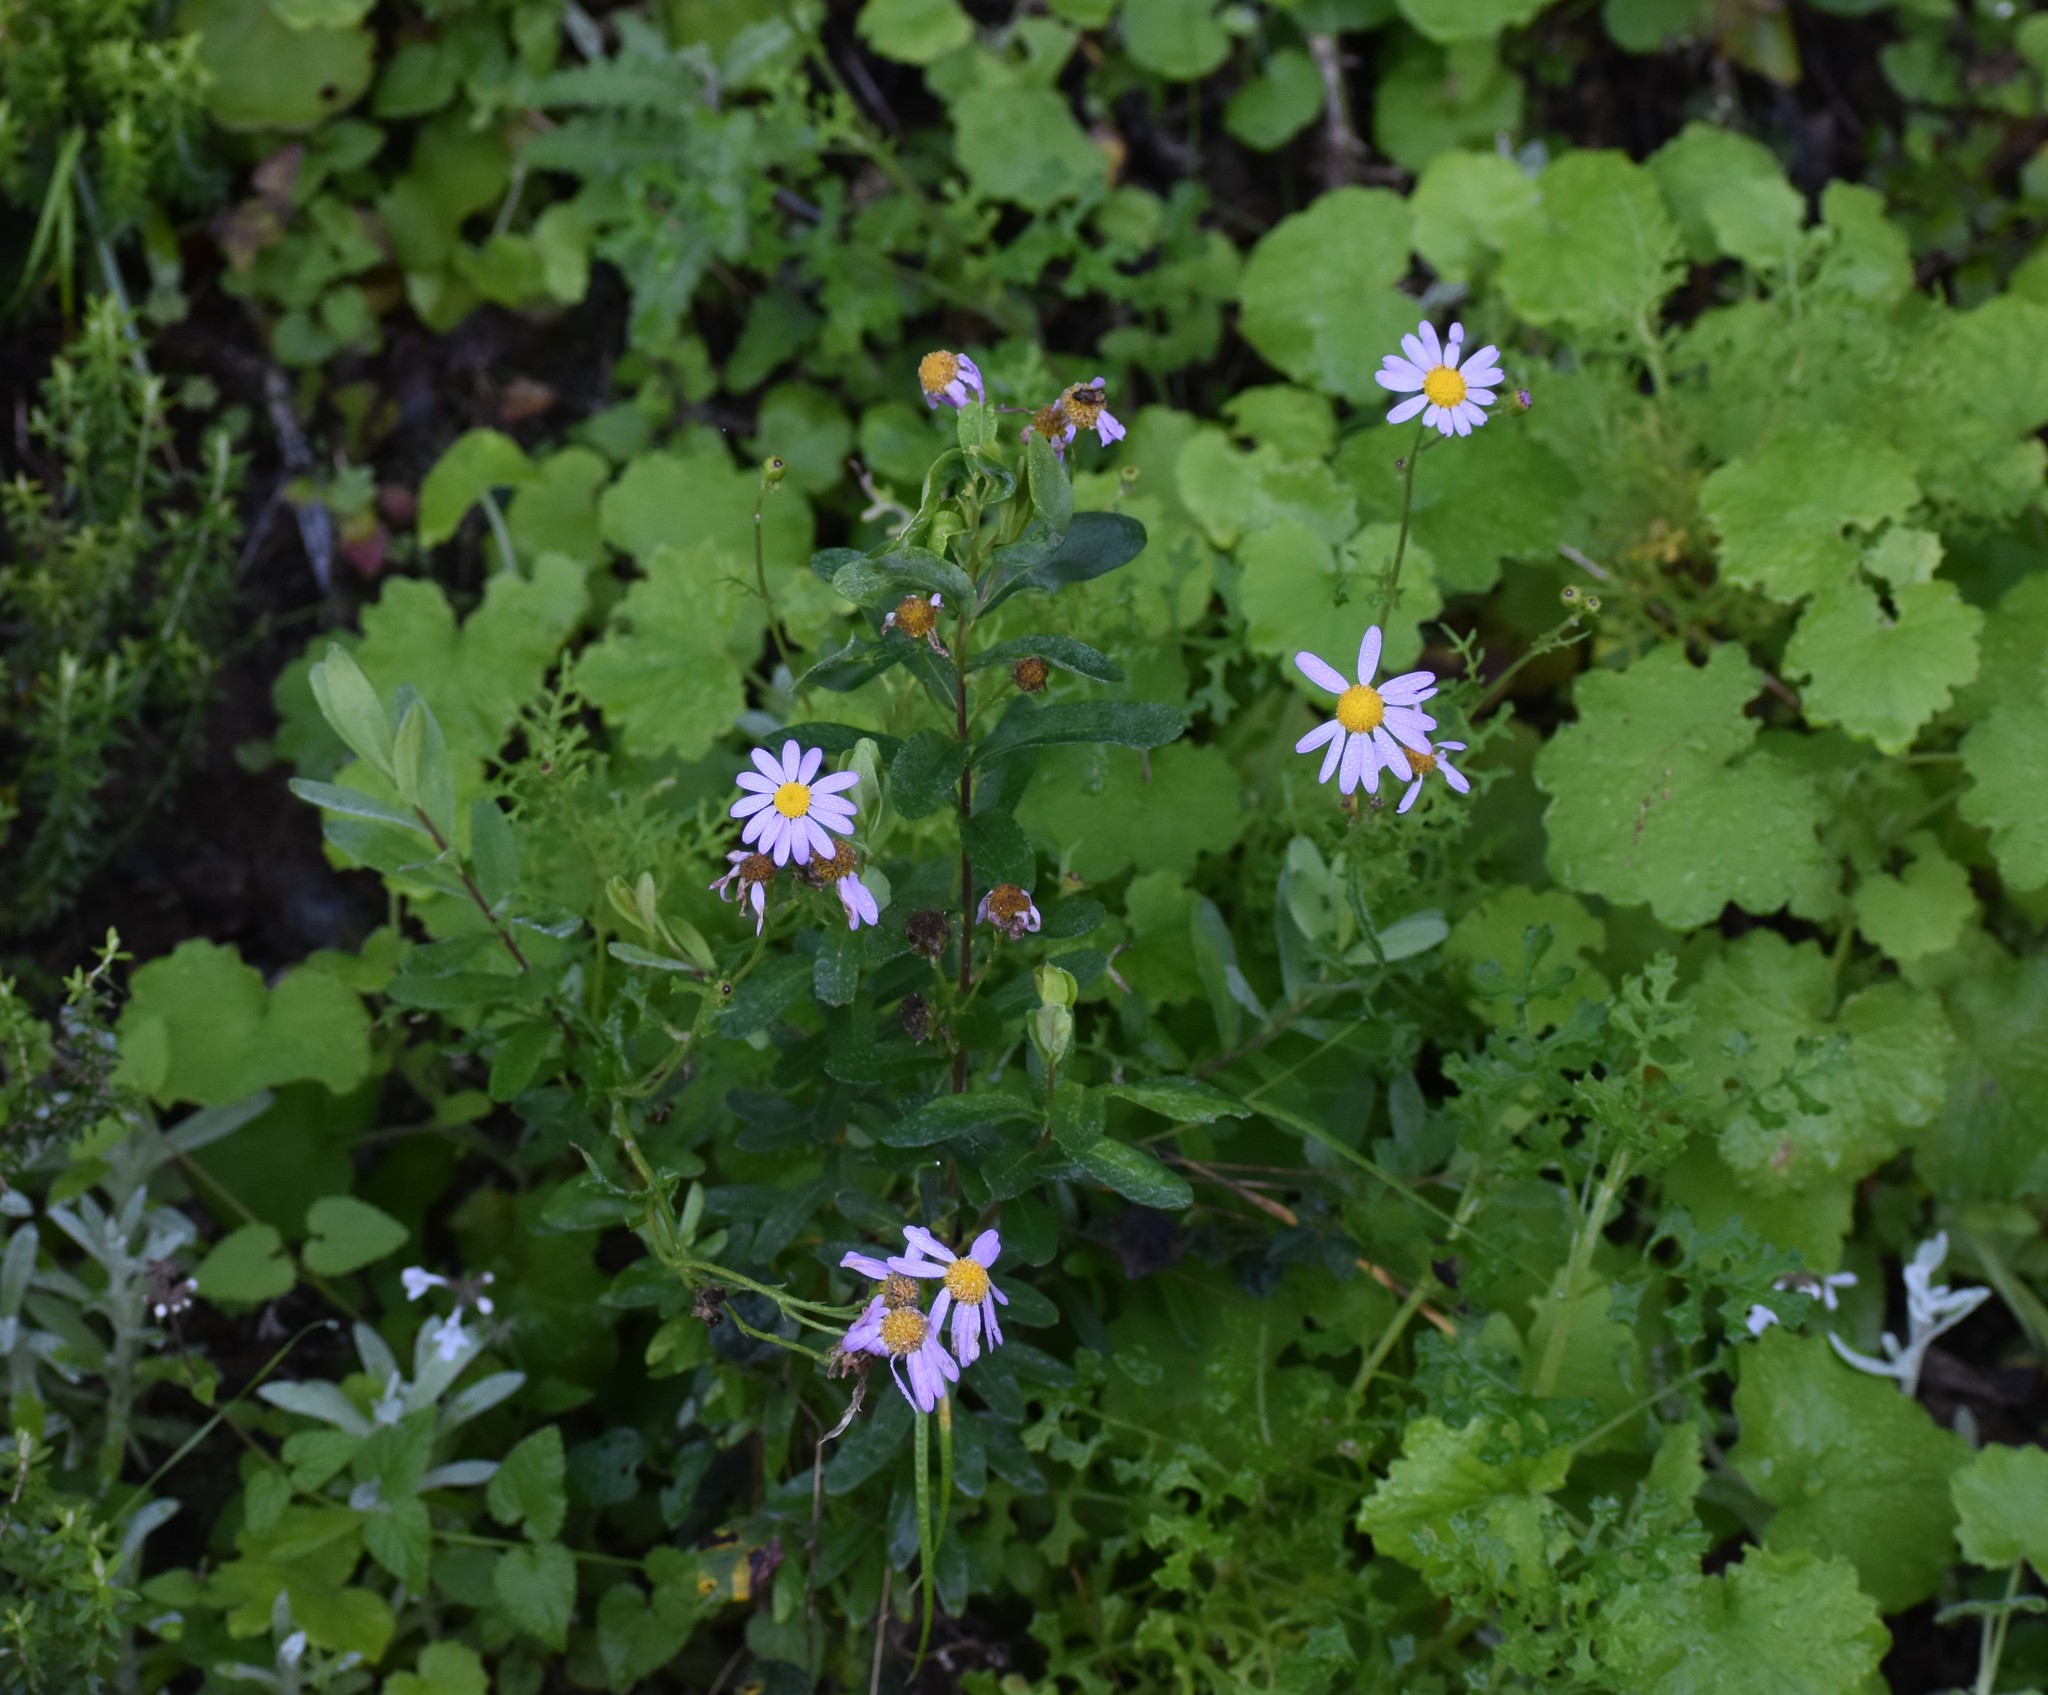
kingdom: Plantae
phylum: Tracheophyta
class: Magnoliopsida
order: Asterales
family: Asteraceae
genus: Senecio
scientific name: Senecio elegans
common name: Purple groundsel
